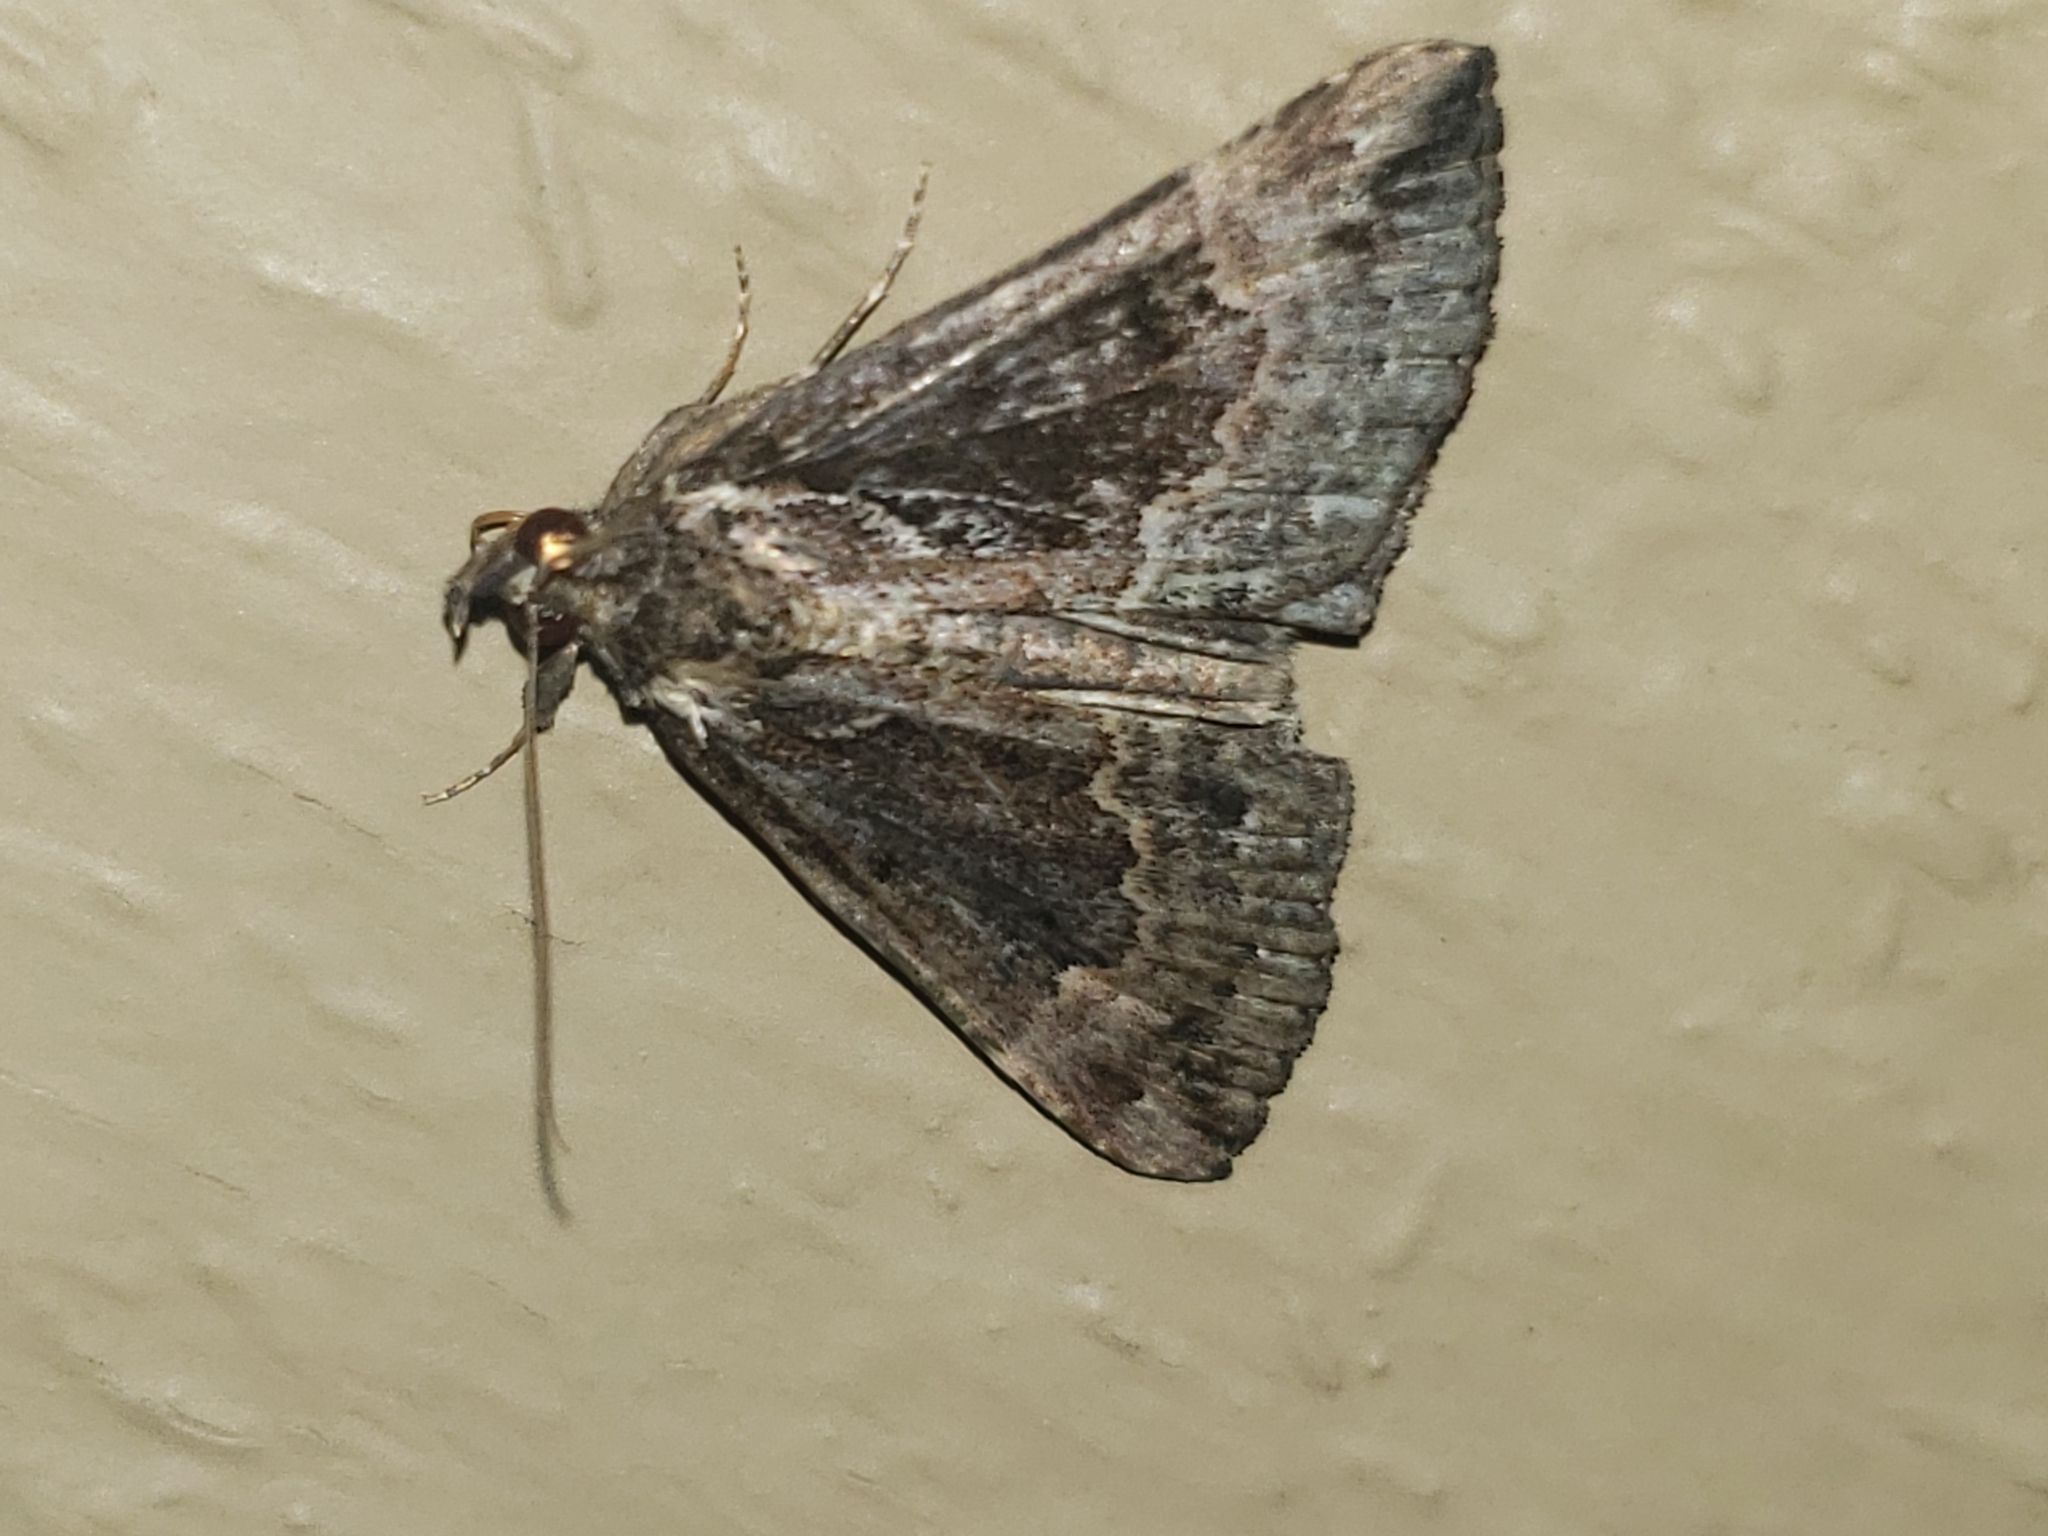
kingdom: Animalia
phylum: Arthropoda
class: Insecta
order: Lepidoptera
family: Erebidae
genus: Hypena
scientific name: Hypena palparia
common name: Mottled bomolocha moth
